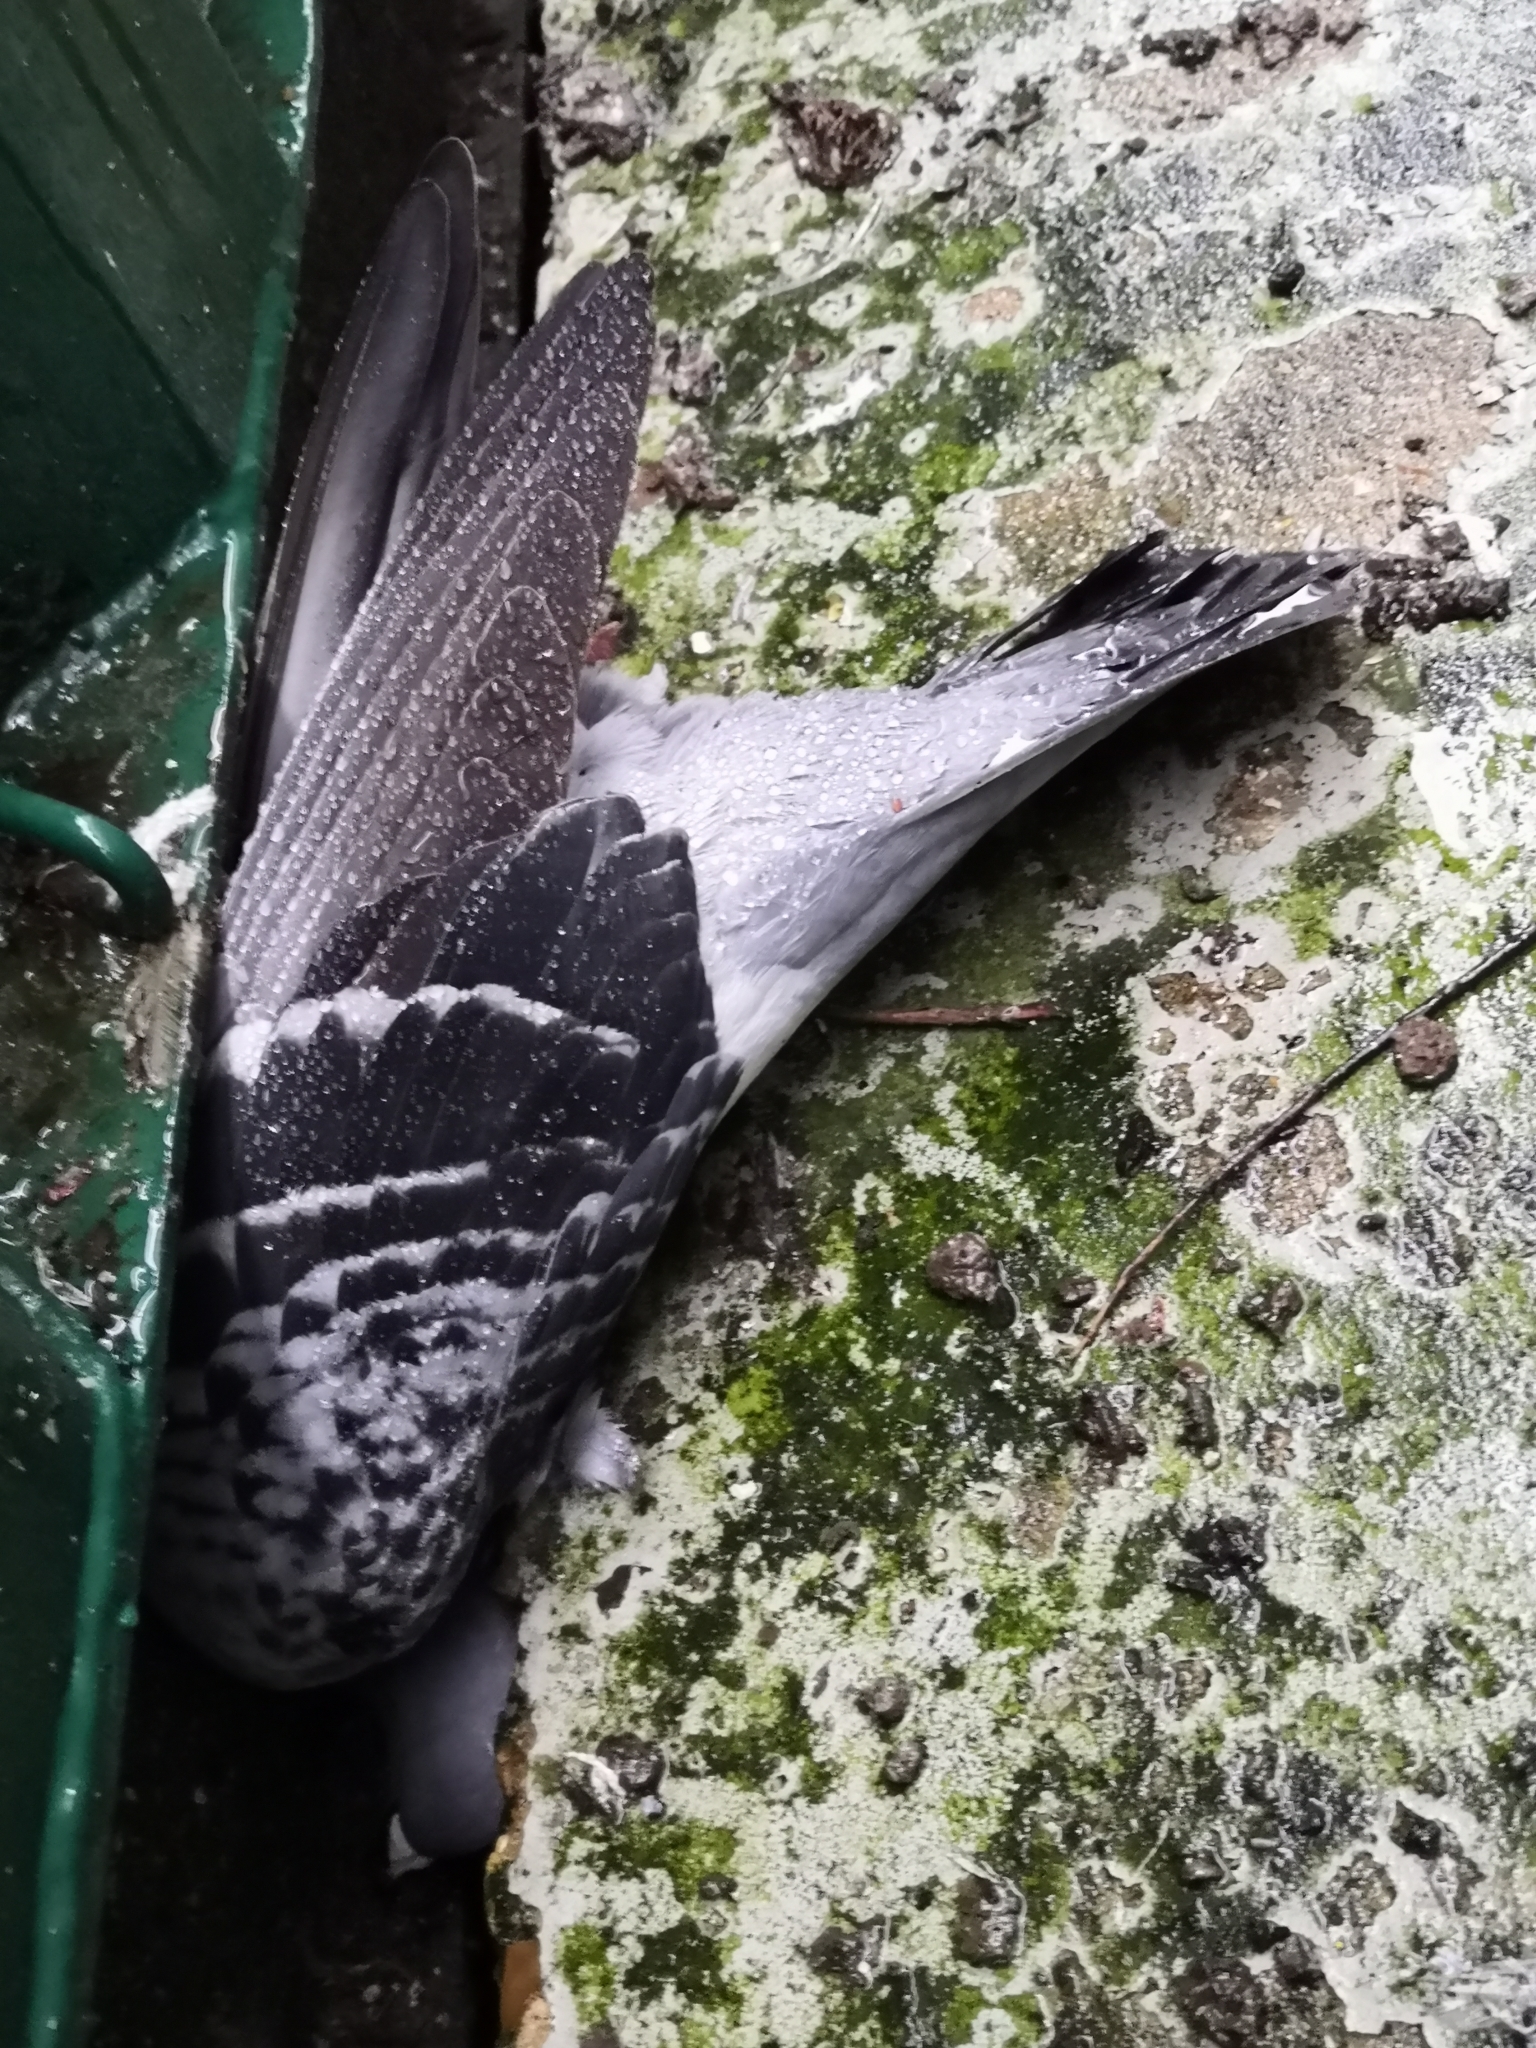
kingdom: Animalia
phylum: Chordata
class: Aves
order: Columbiformes
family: Columbidae
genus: Columba
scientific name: Columba livia
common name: Rock pigeon
